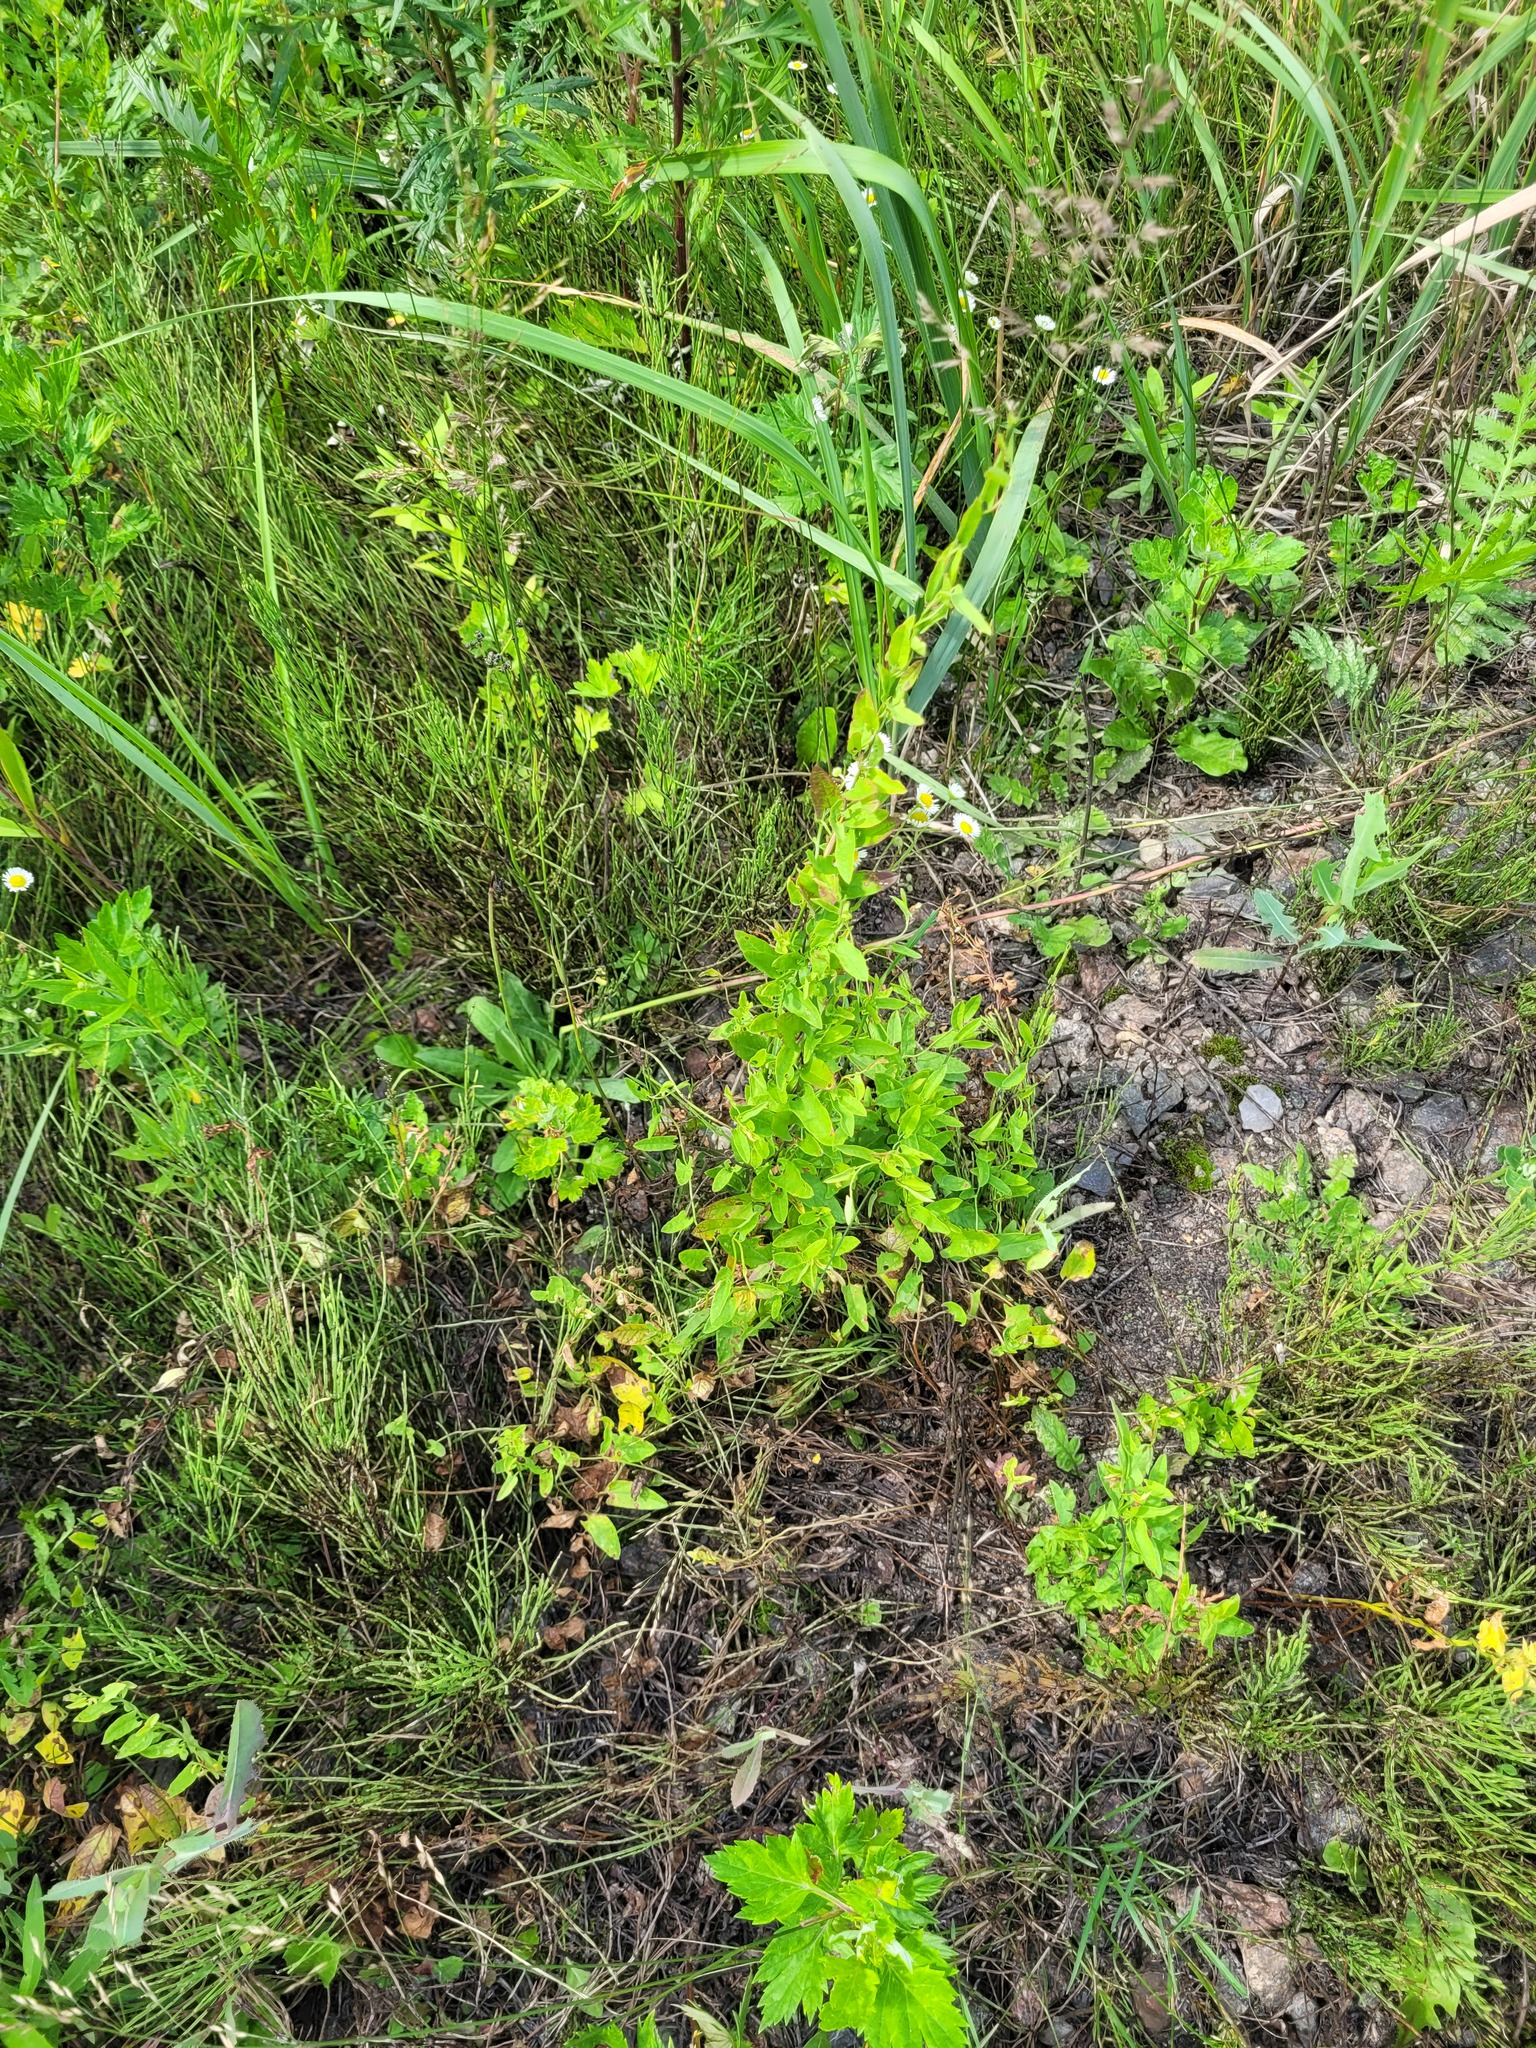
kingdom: Plantae
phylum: Tracheophyta
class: Magnoliopsida
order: Solanales
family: Convolvulaceae
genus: Convolvulus
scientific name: Convolvulus arvensis
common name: Field bindweed
